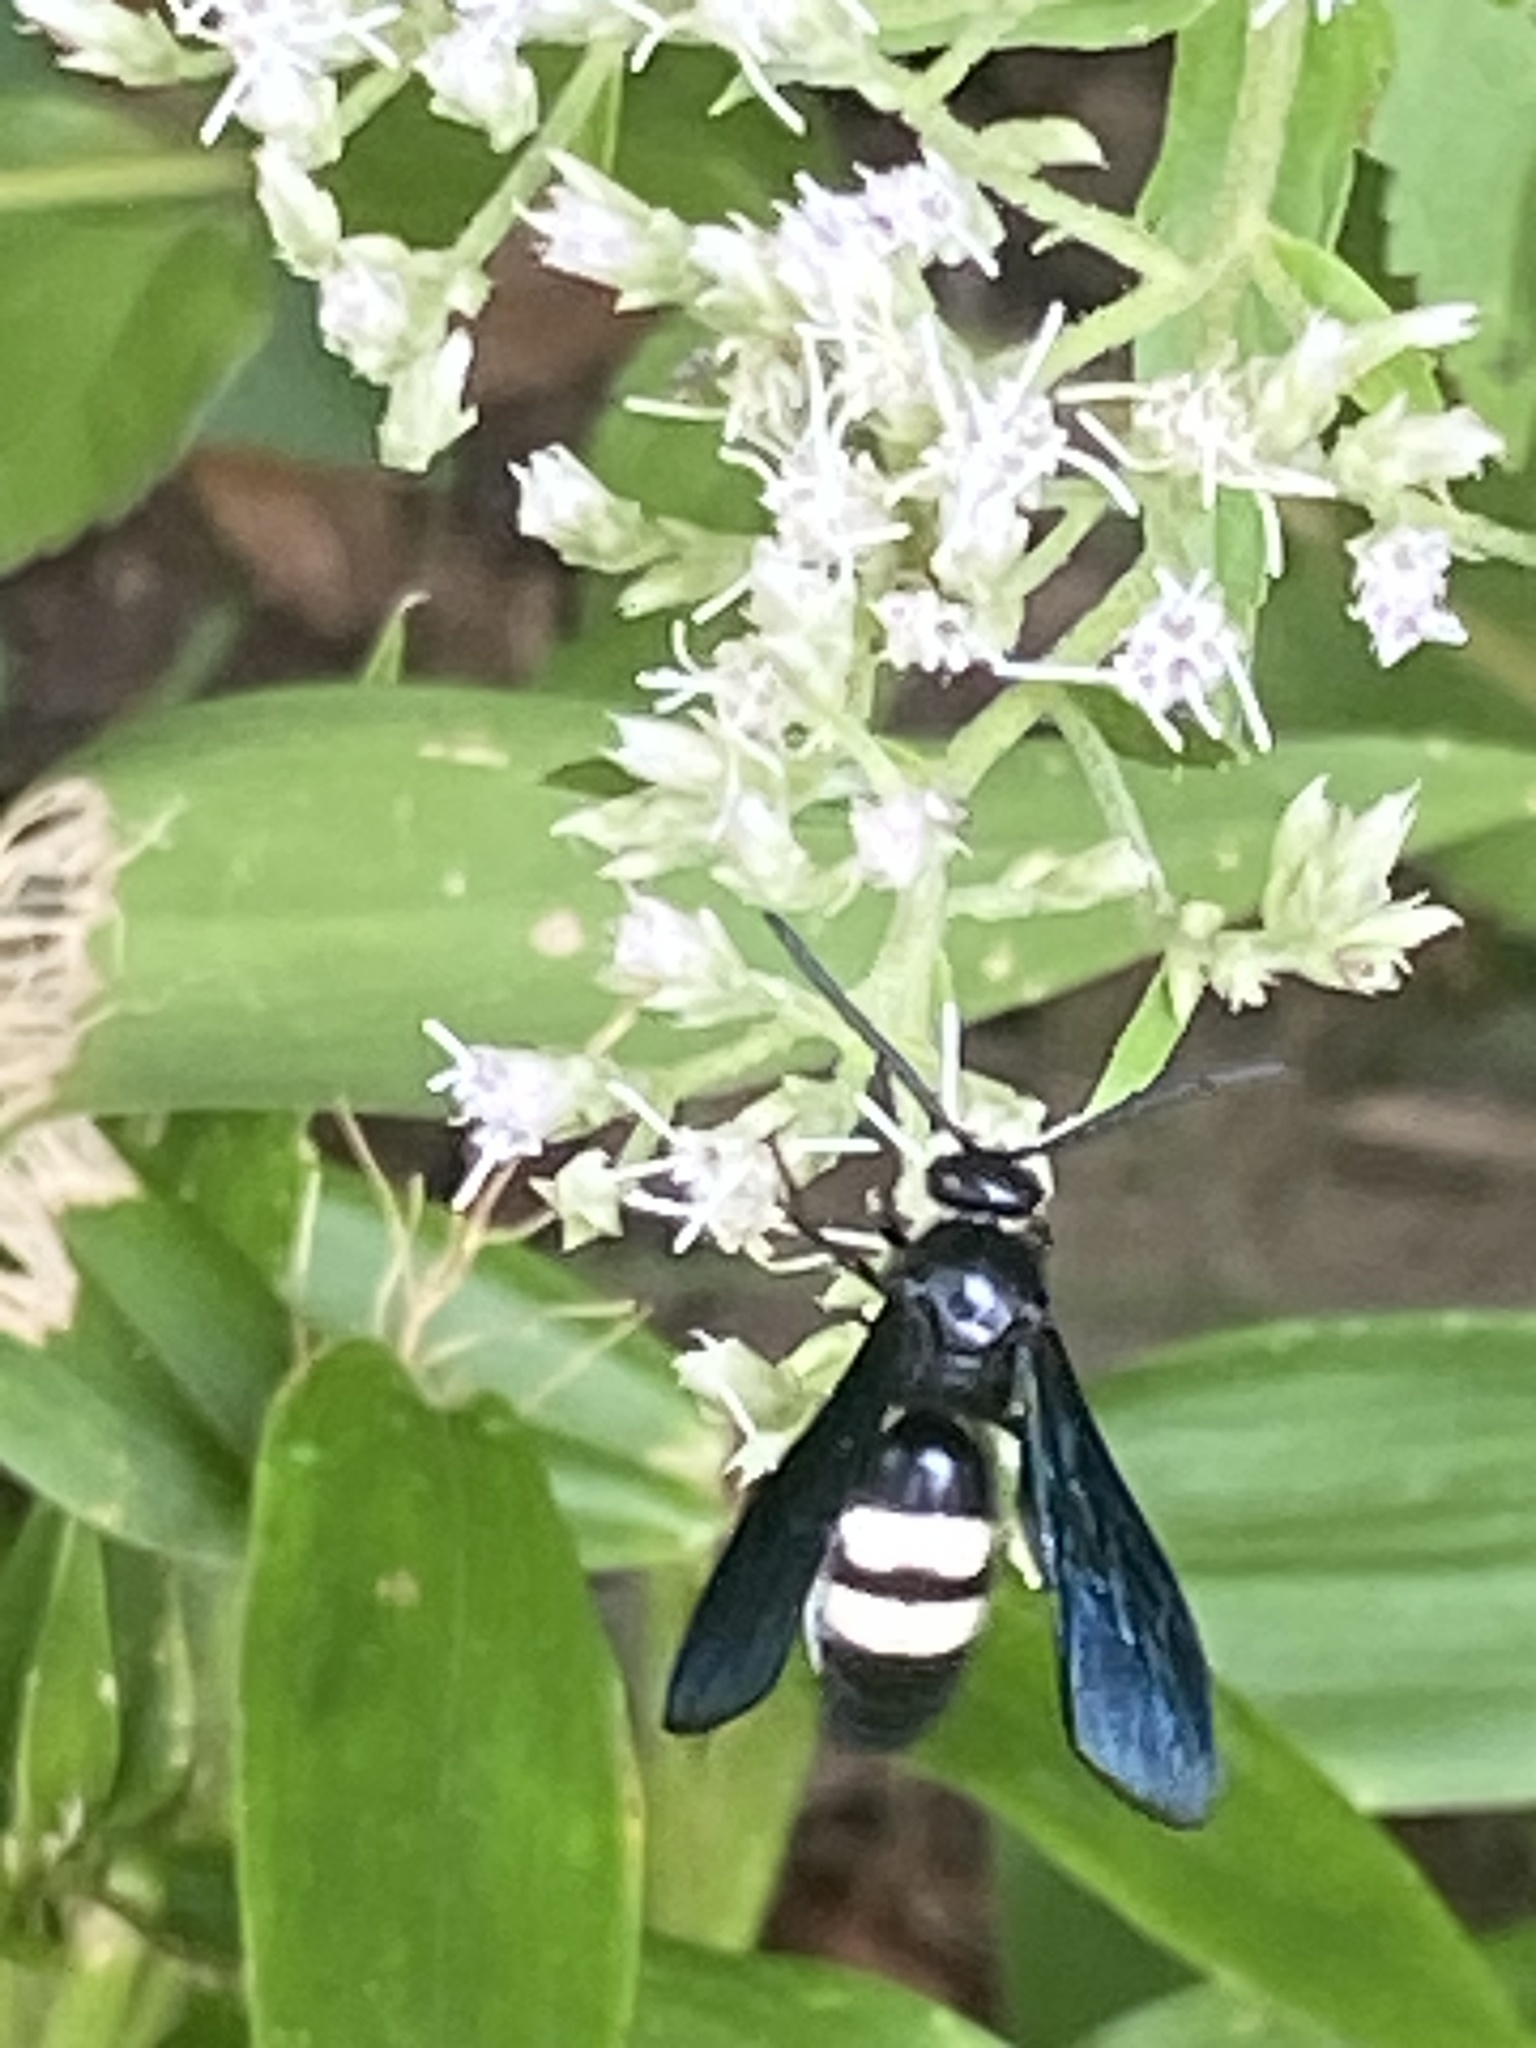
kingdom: Animalia
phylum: Arthropoda
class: Insecta
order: Hymenoptera
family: Scoliidae
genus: Scolia
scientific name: Scolia bicincta
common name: Double-banded scoliid wasp
